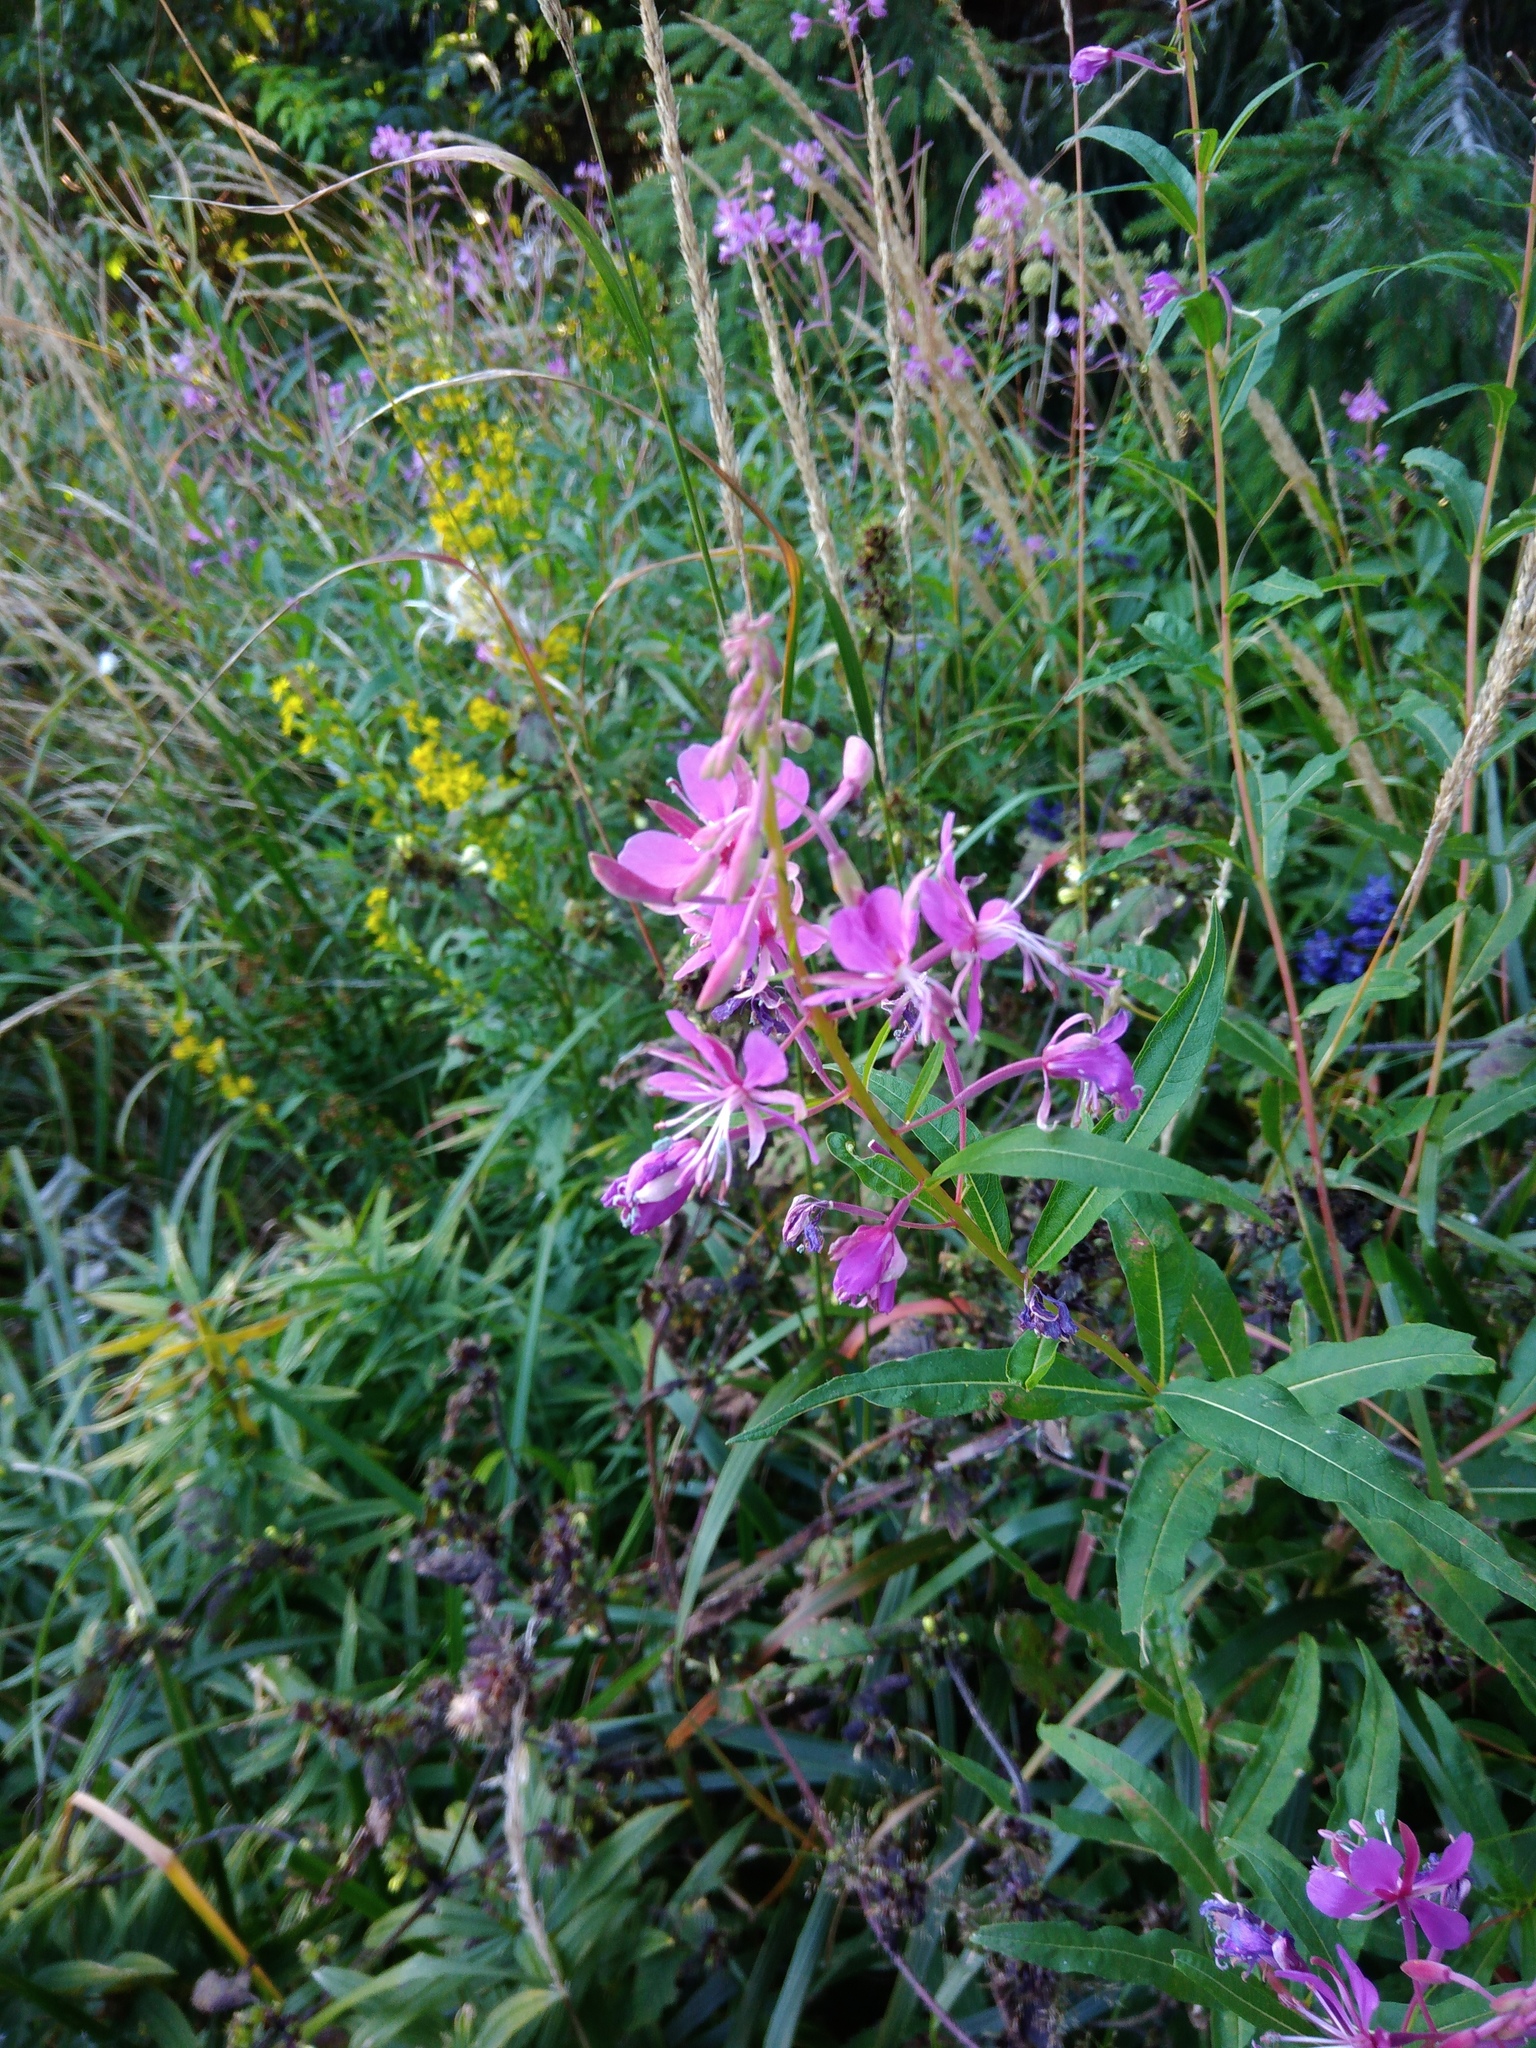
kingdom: Plantae
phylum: Tracheophyta
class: Magnoliopsida
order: Myrtales
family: Onagraceae
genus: Chamaenerion
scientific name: Chamaenerion angustifolium
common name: Fireweed
